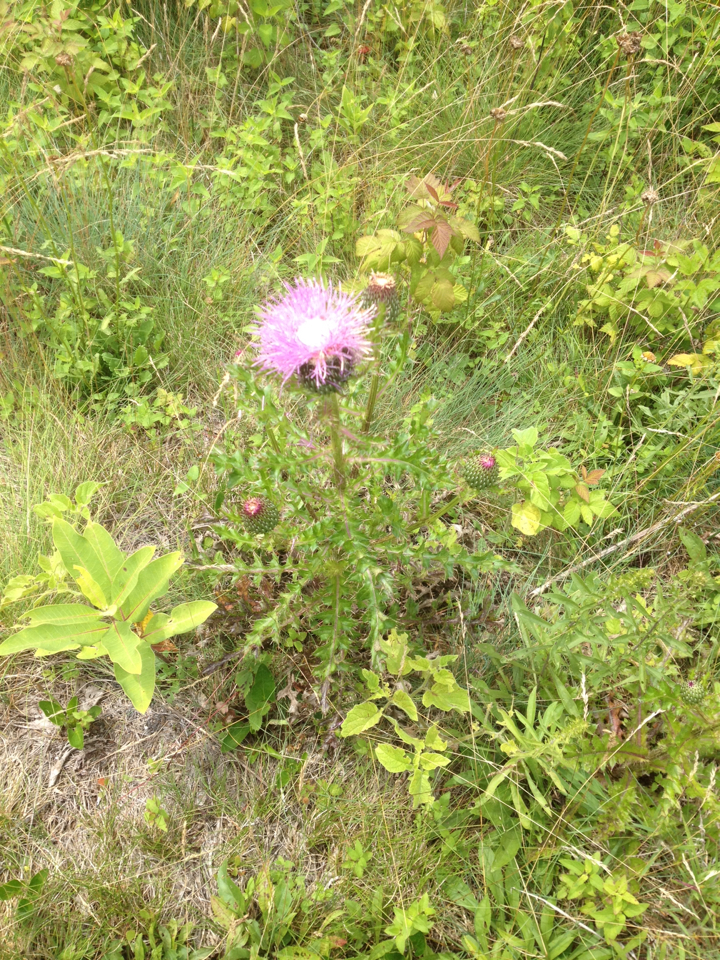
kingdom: Plantae
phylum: Tracheophyta
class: Magnoliopsida
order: Asterales
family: Asteraceae
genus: Cirsium
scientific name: Cirsium pumilum
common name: Pasture thistle
